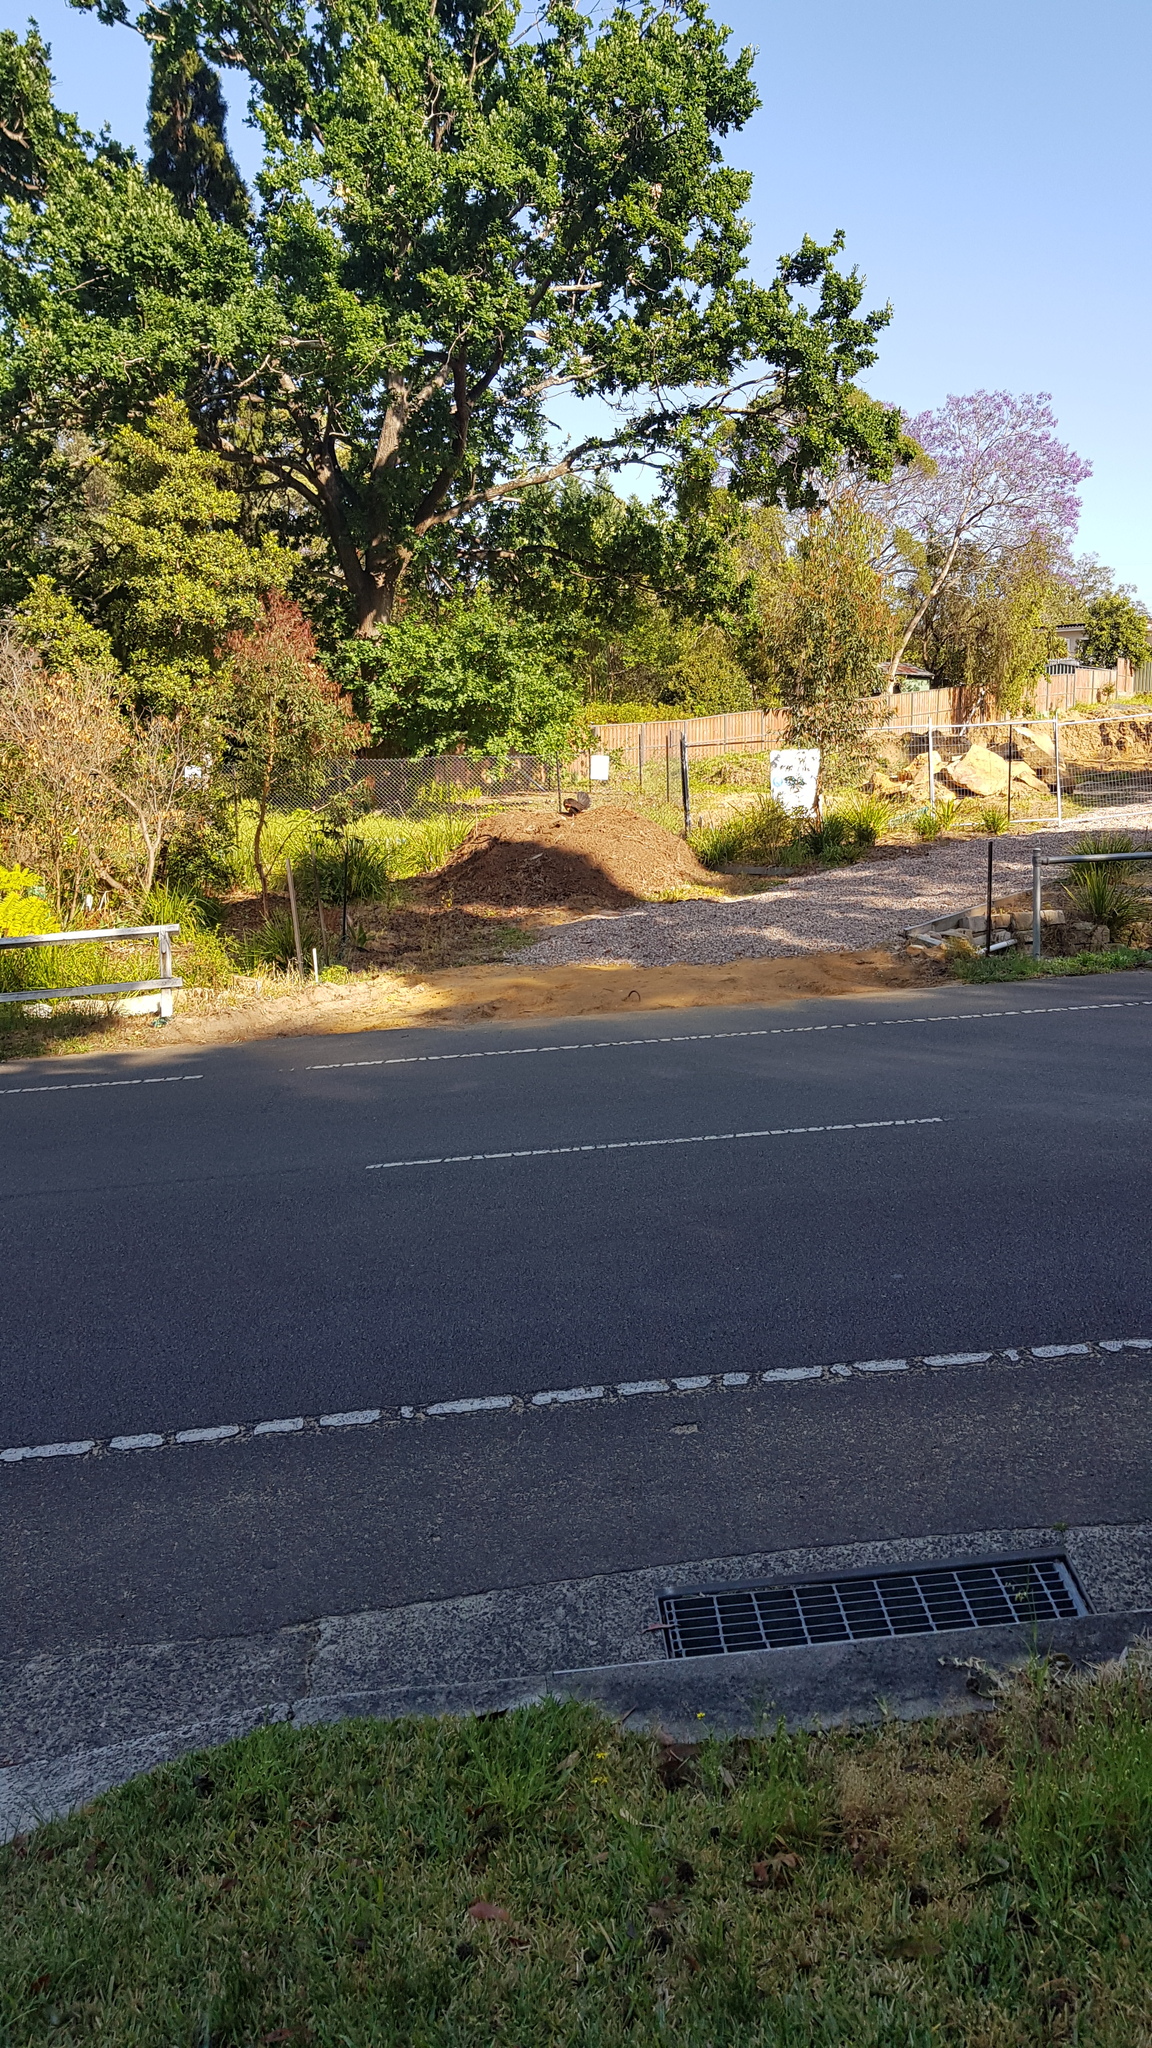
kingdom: Animalia
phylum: Chordata
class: Aves
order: Galliformes
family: Megapodiidae
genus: Alectura
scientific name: Alectura lathami
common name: Australian brushturkey
